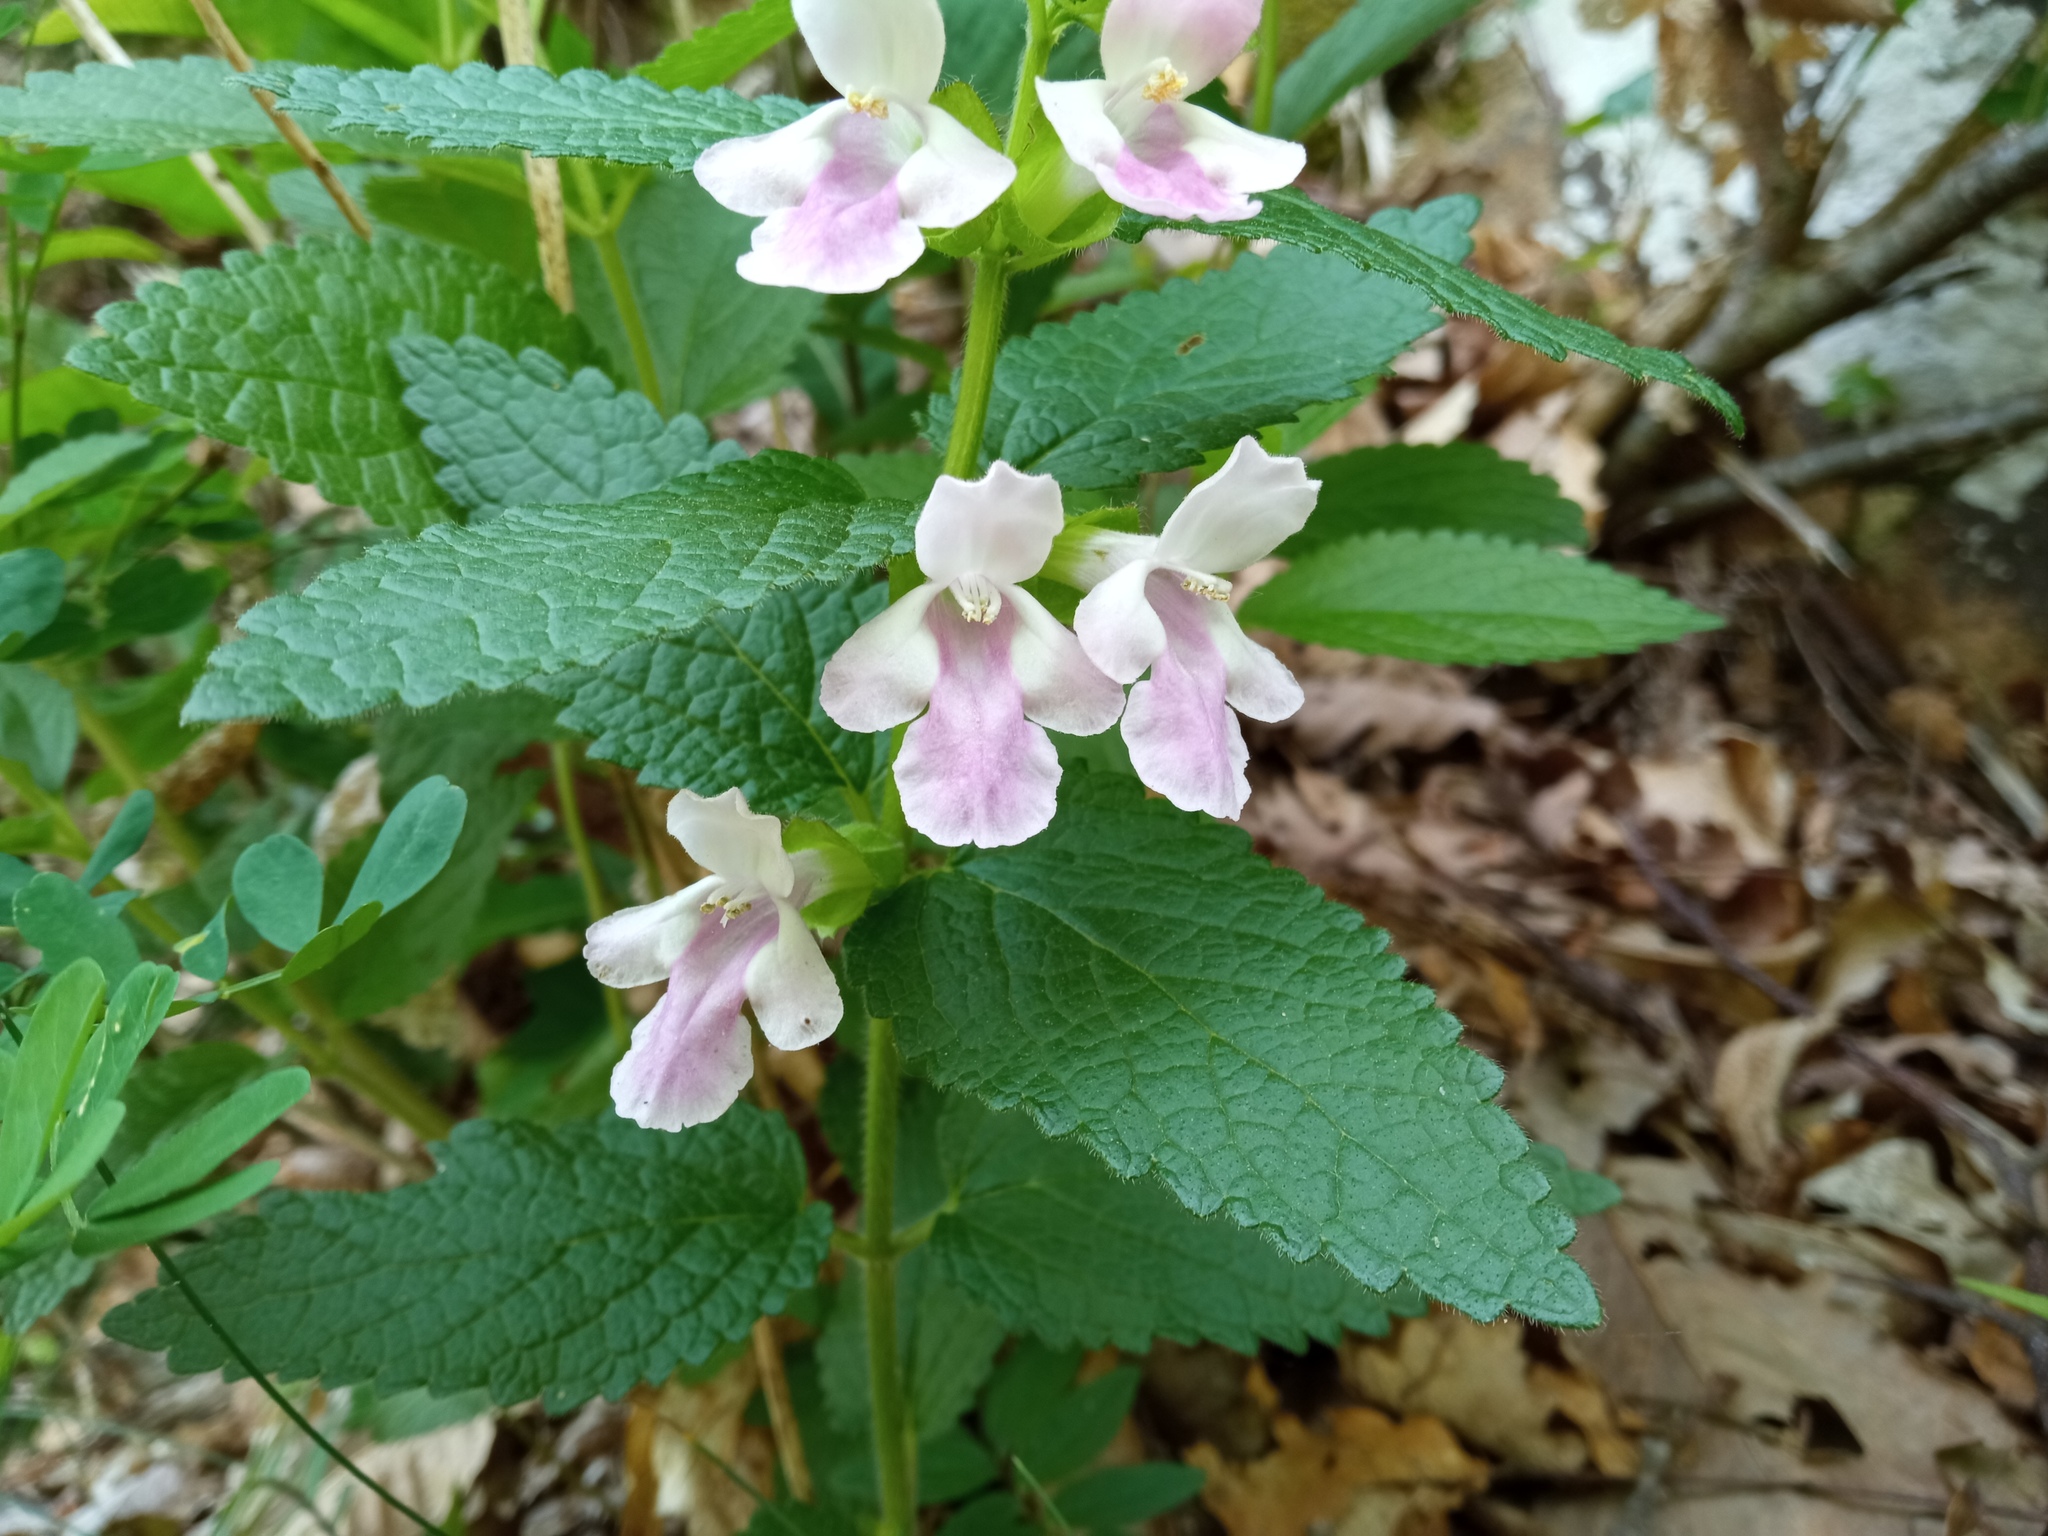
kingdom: Plantae
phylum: Tracheophyta
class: Magnoliopsida
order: Lamiales
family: Lamiaceae
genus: Melittis
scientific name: Melittis melissophyllum
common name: Bastard balm
